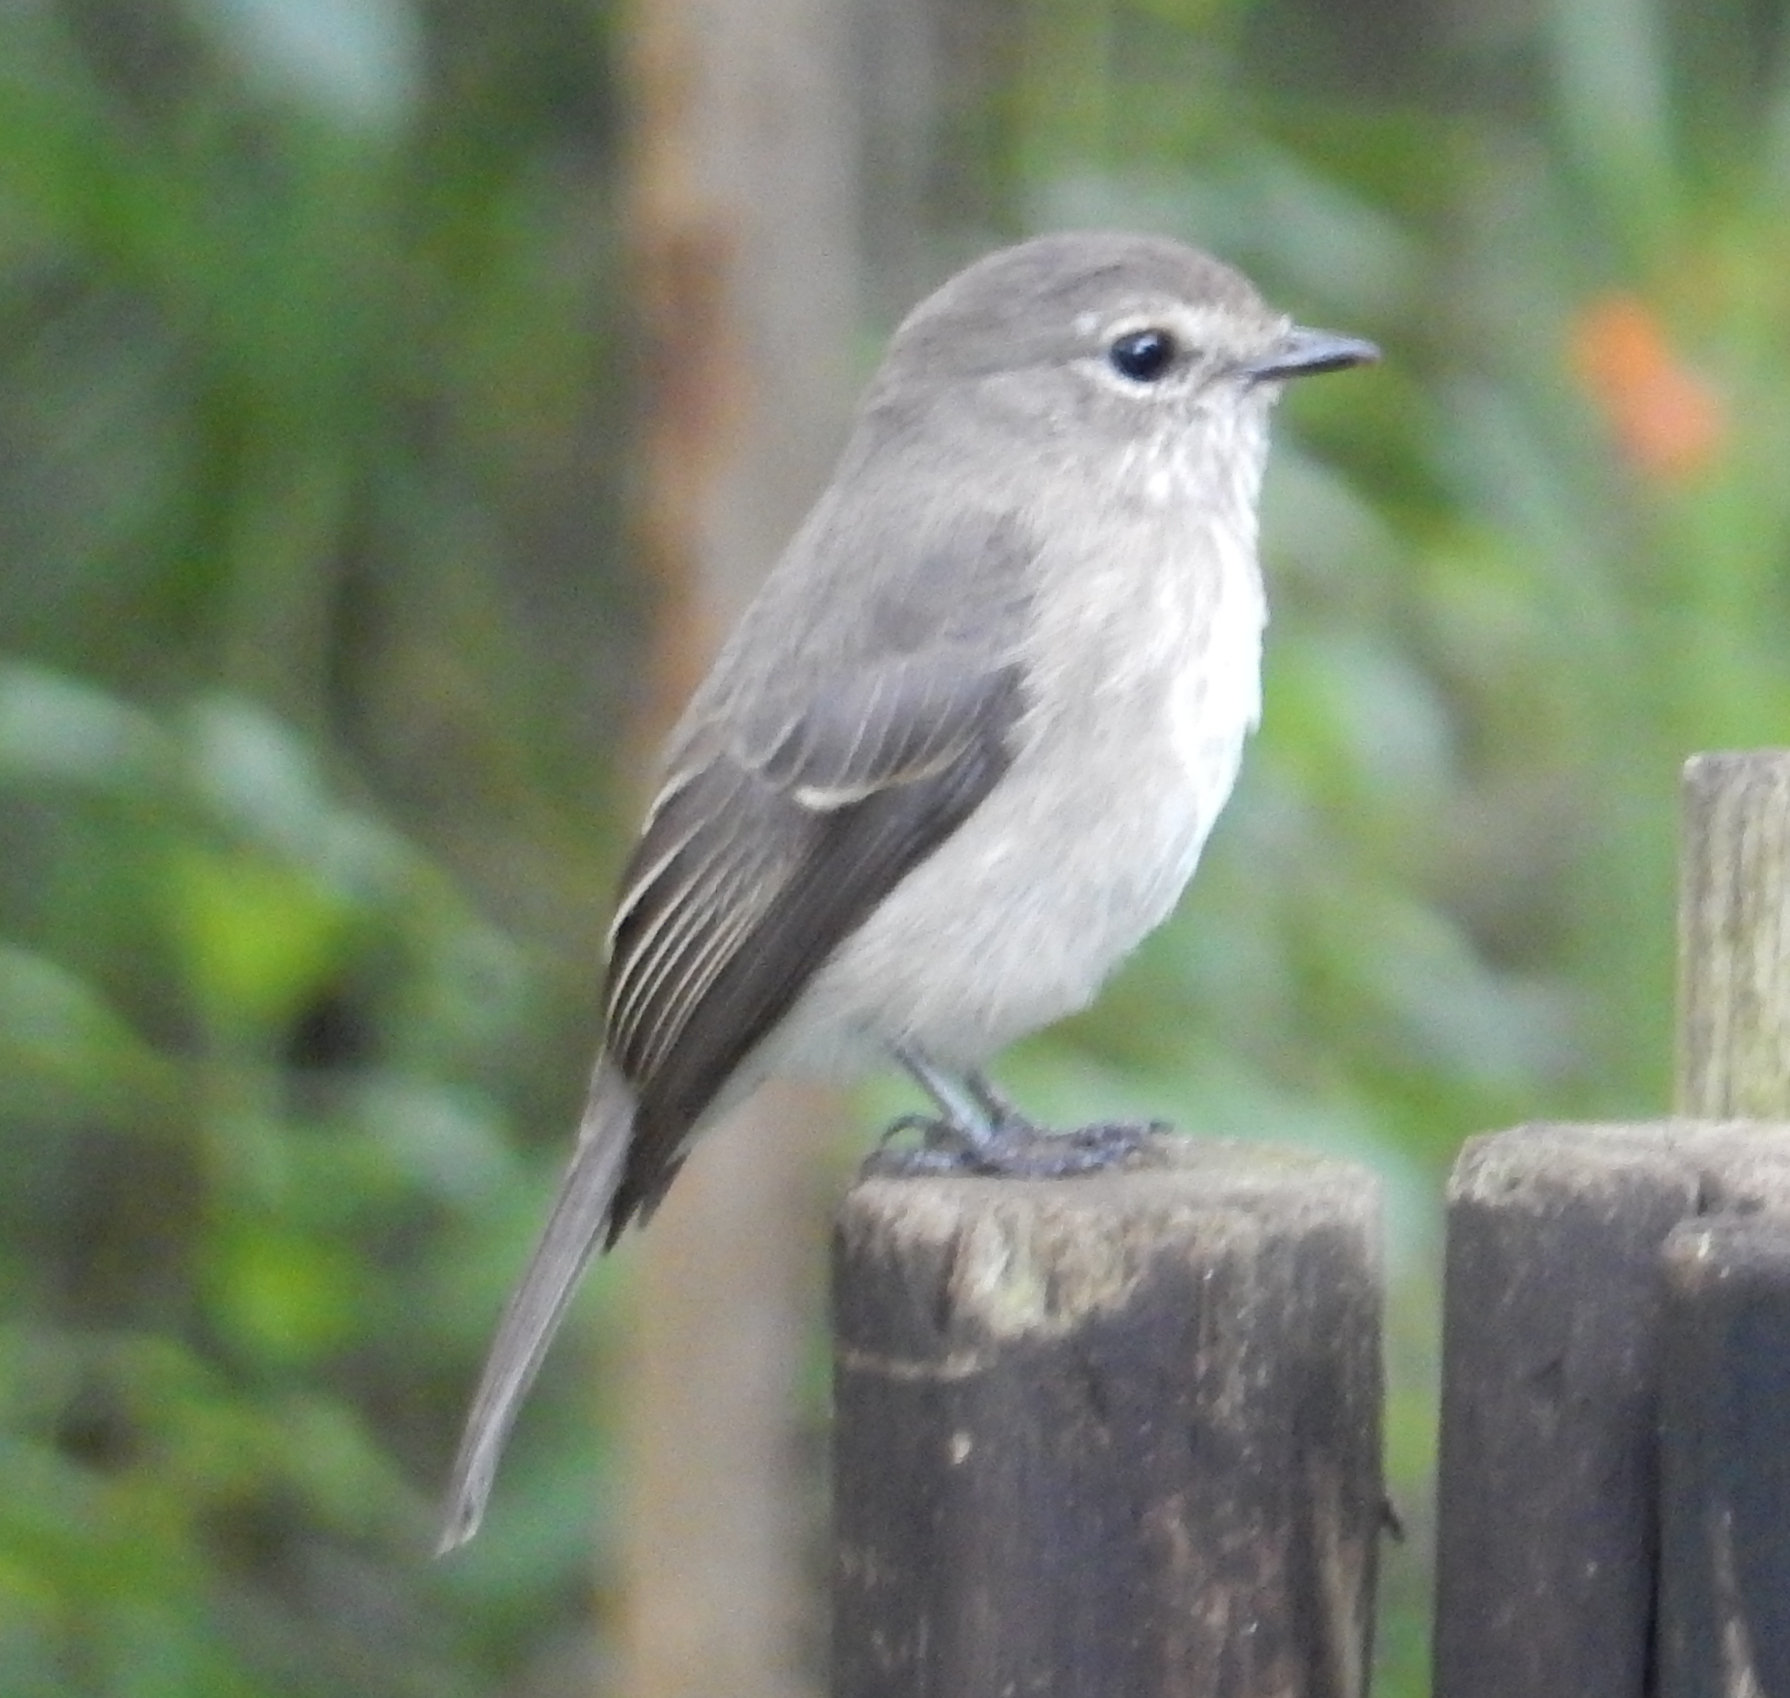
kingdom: Animalia
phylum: Chordata
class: Aves
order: Passeriformes
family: Muscicapidae
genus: Muscicapa
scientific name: Muscicapa adusta
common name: African dusky flycatcher
